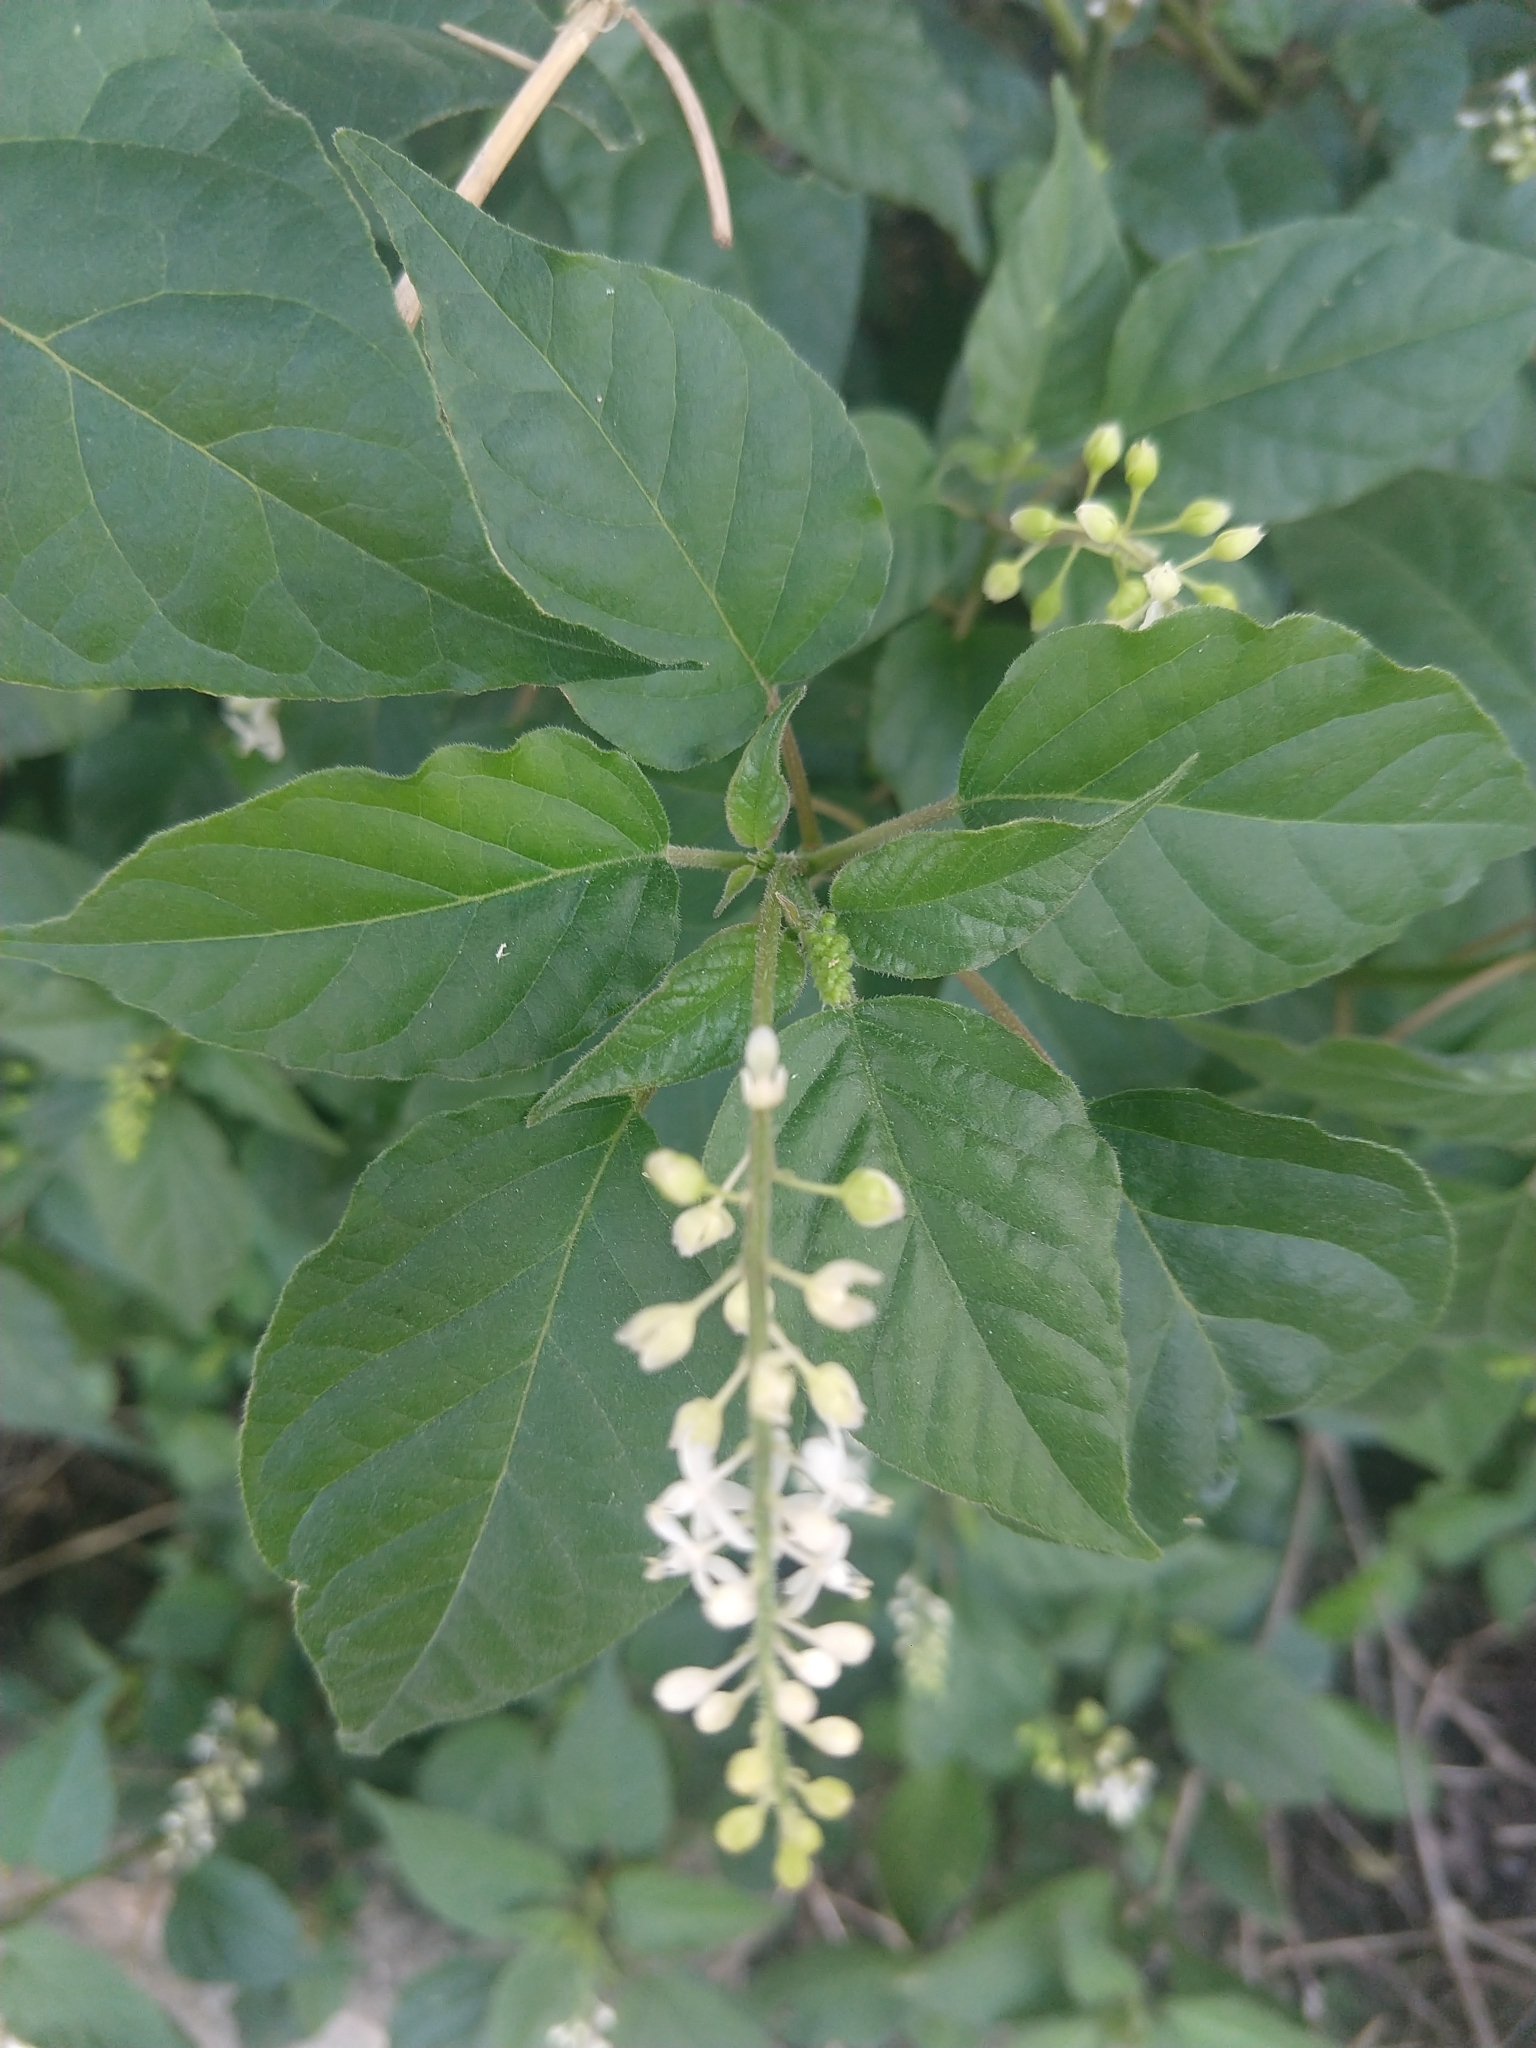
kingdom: Plantae
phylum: Tracheophyta
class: Magnoliopsida
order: Caryophyllales
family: Phytolaccaceae
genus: Rivina
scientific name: Rivina humilis
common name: Rougeplant
